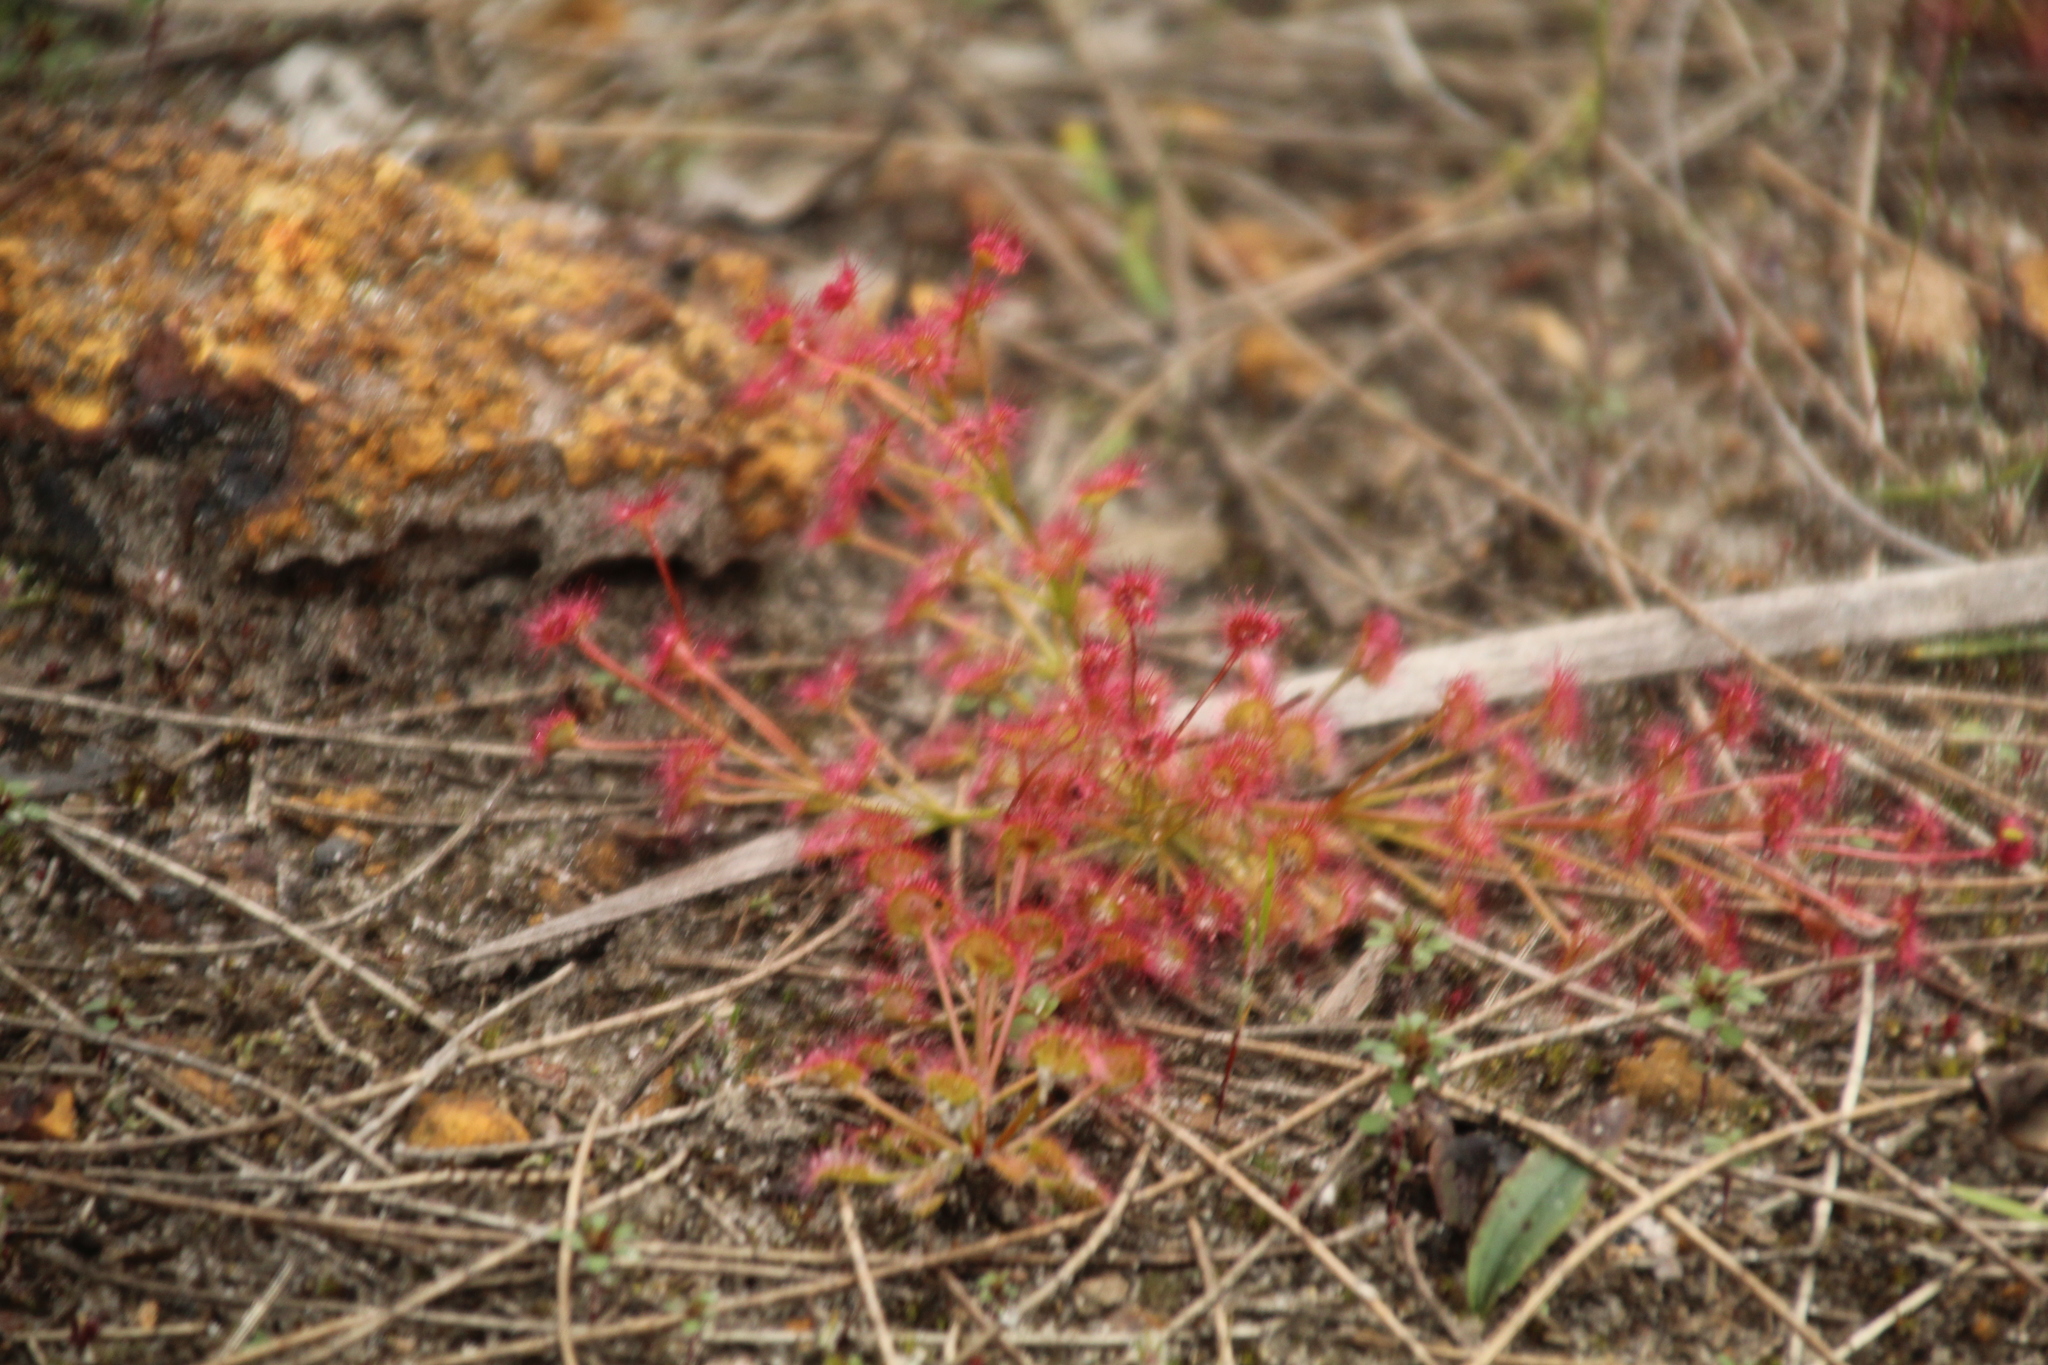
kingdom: Plantae
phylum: Tracheophyta
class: Magnoliopsida
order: Caryophyllales
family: Droseraceae
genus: Drosera
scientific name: Drosera stolonifera
